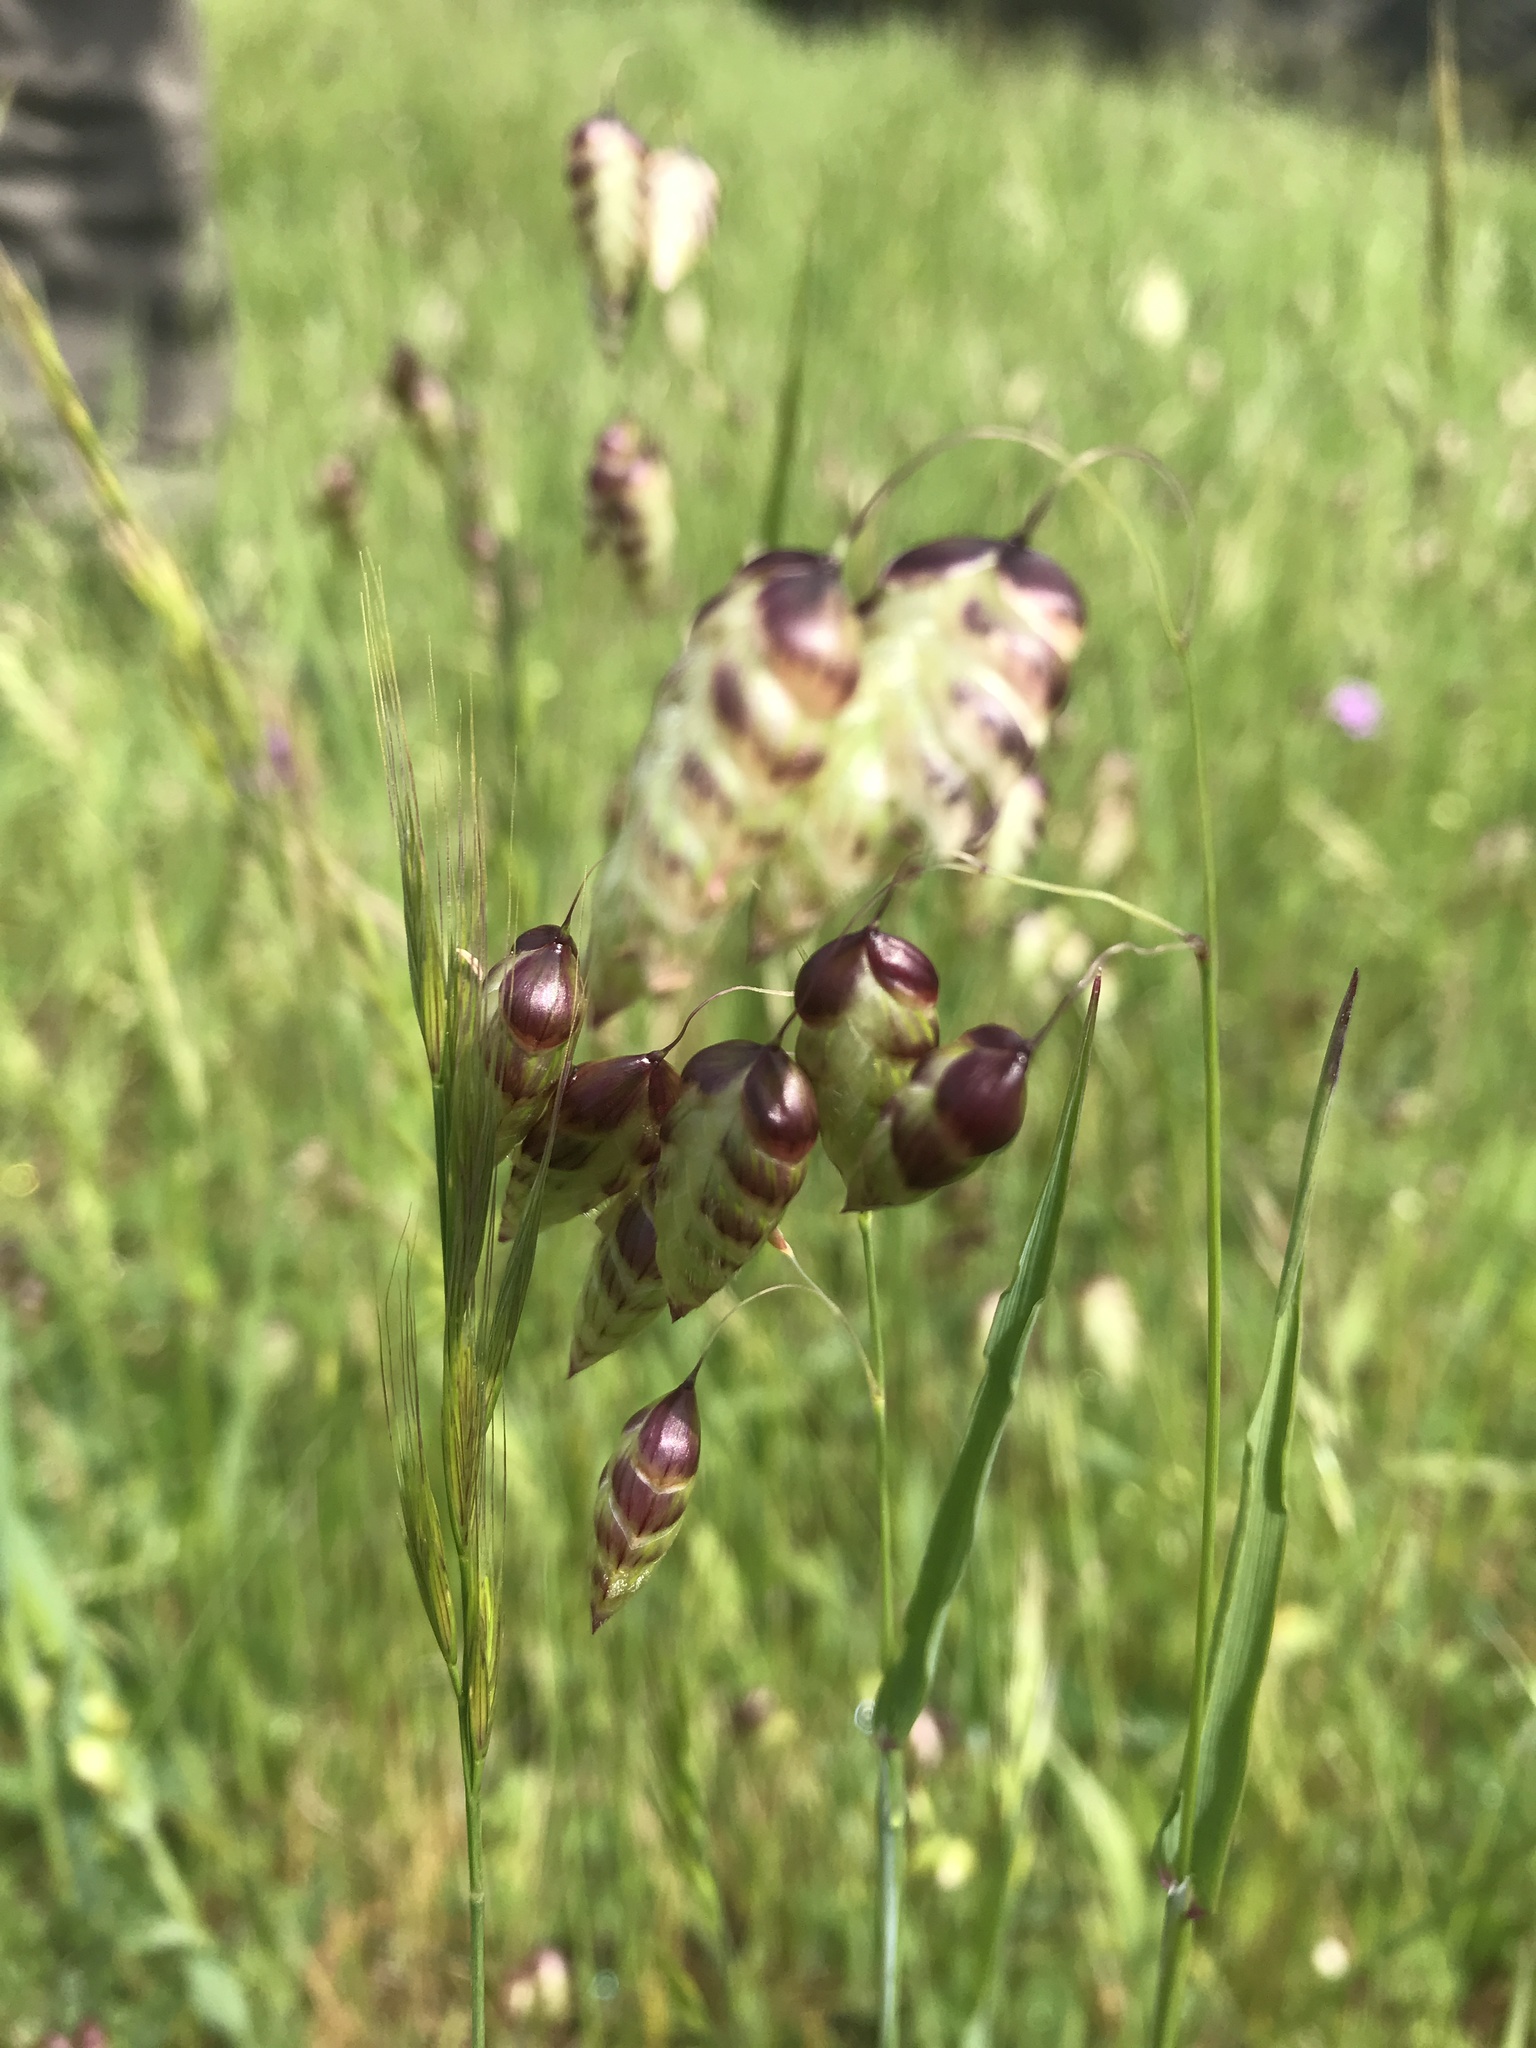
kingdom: Plantae
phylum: Tracheophyta
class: Liliopsida
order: Poales
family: Poaceae
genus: Briza
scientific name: Briza maxima
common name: Big quakinggrass
